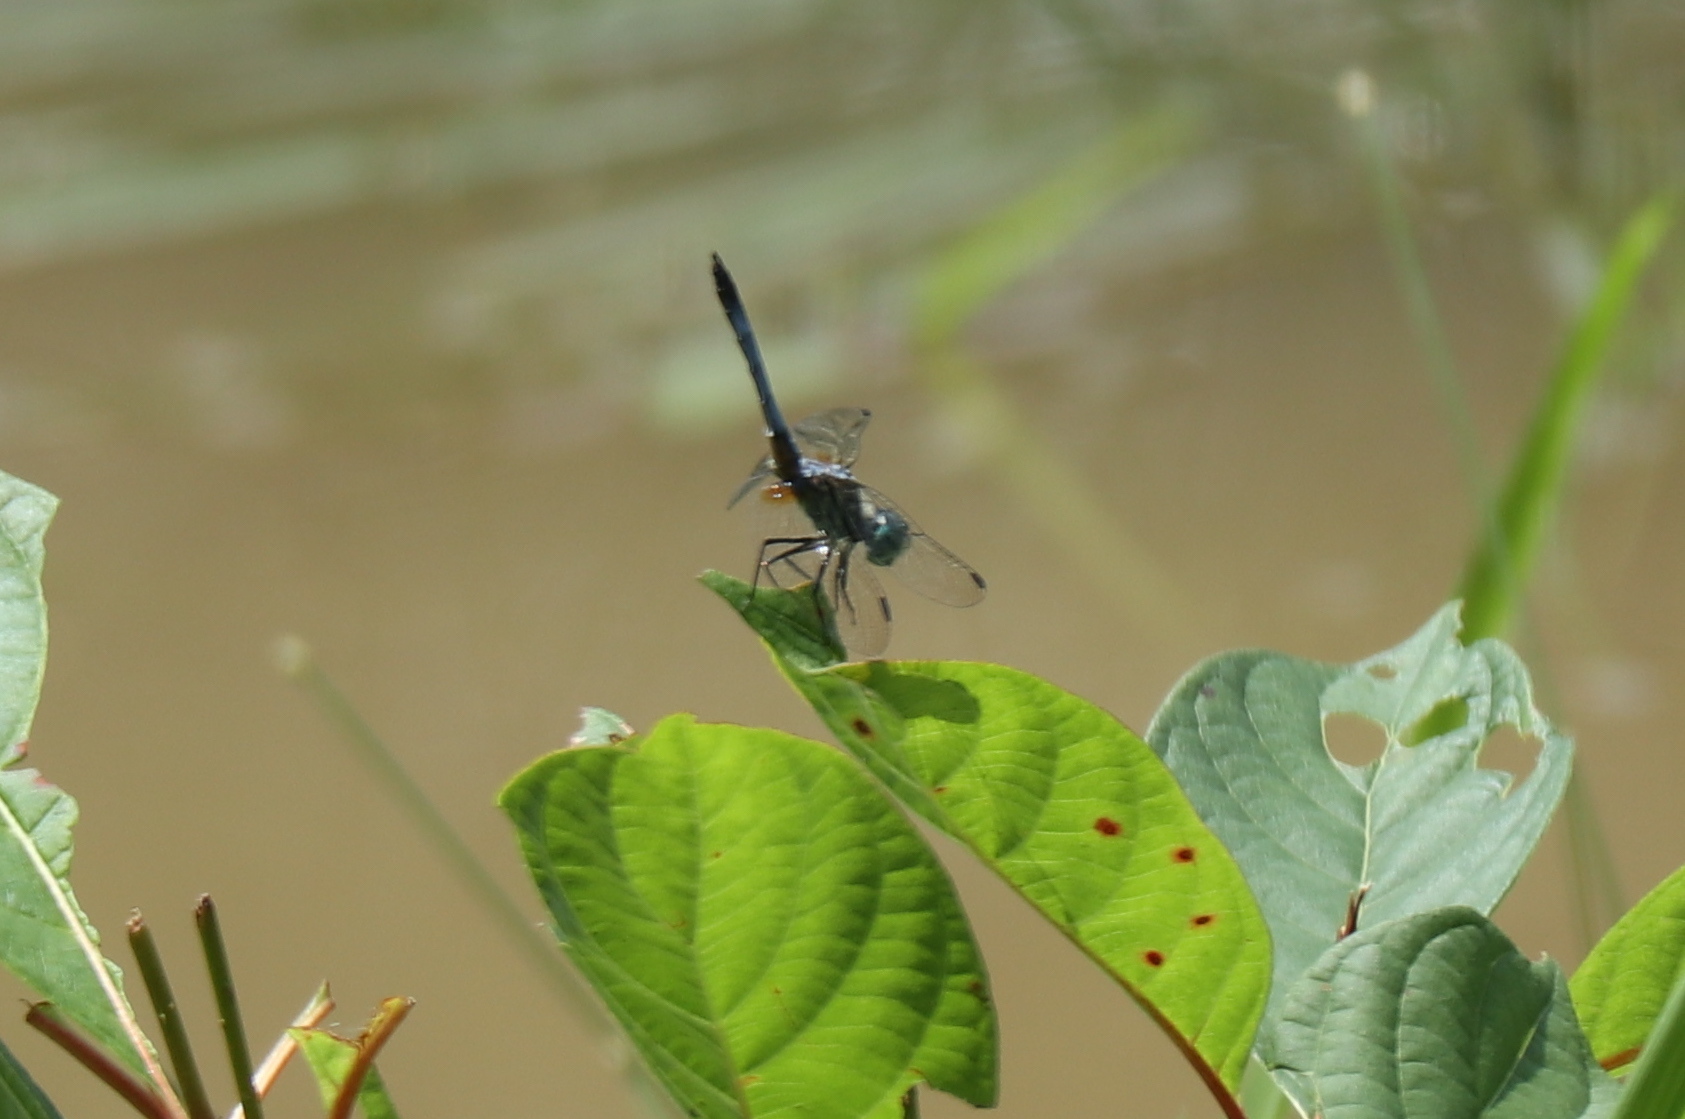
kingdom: Animalia
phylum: Arthropoda
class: Insecta
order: Odonata
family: Libellulidae
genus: Pachydiplax
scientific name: Pachydiplax longipennis
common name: Blue dasher
